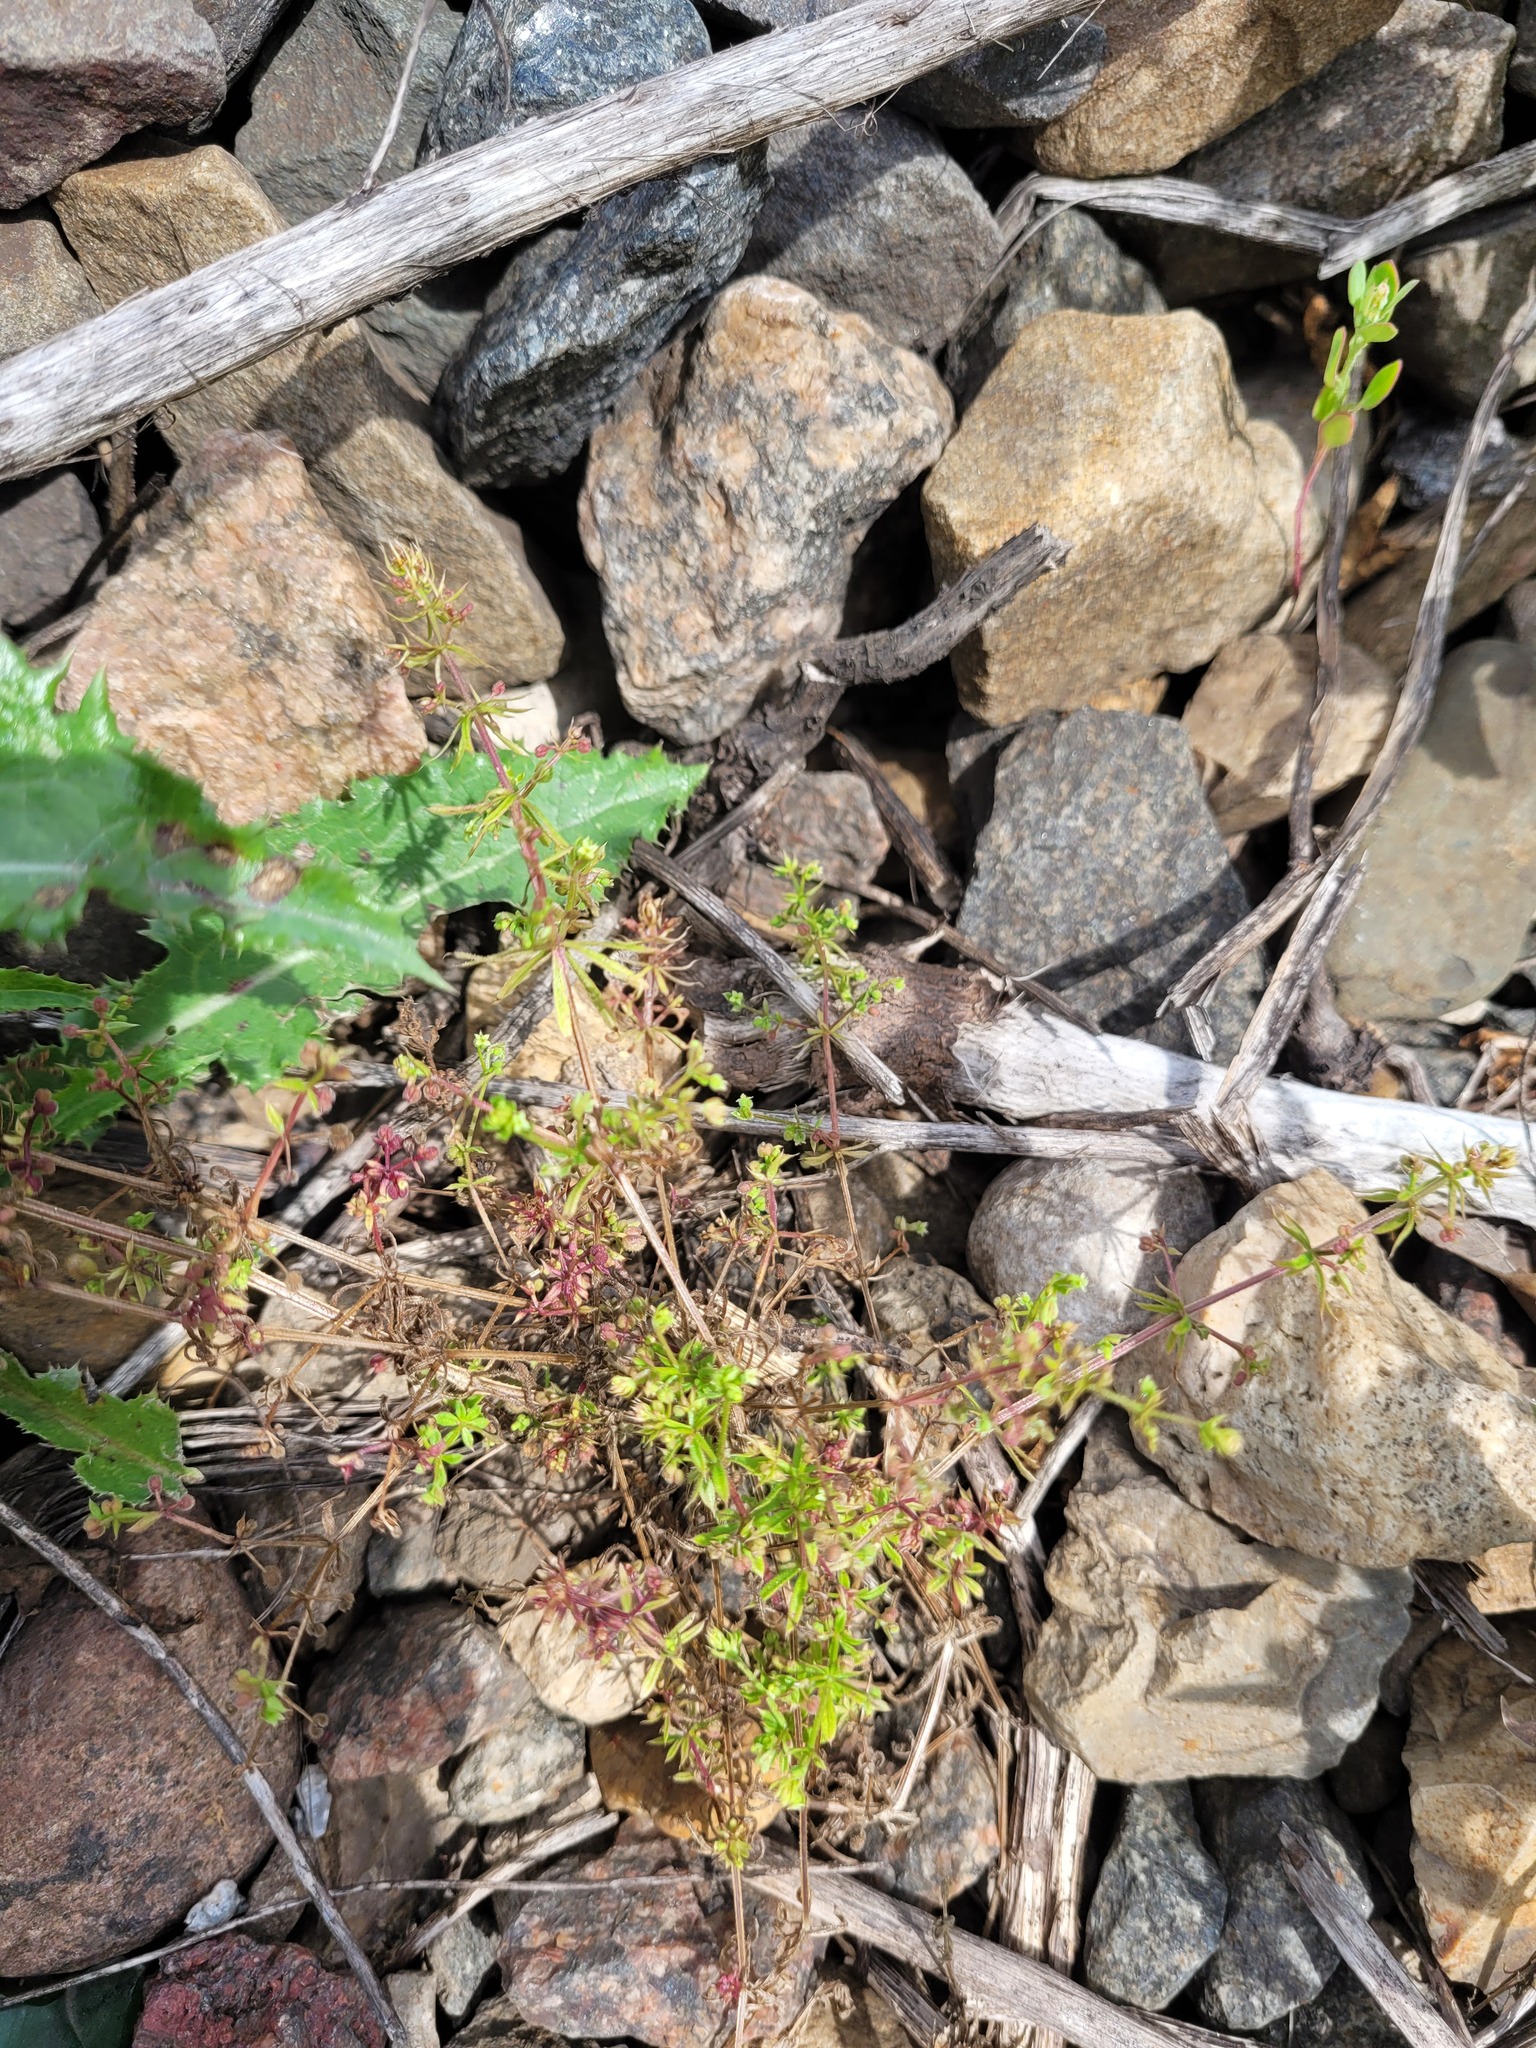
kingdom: Plantae
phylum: Tracheophyta
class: Magnoliopsida
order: Gentianales
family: Rubiaceae
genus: Galium
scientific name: Galium aparine
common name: Cleavers
